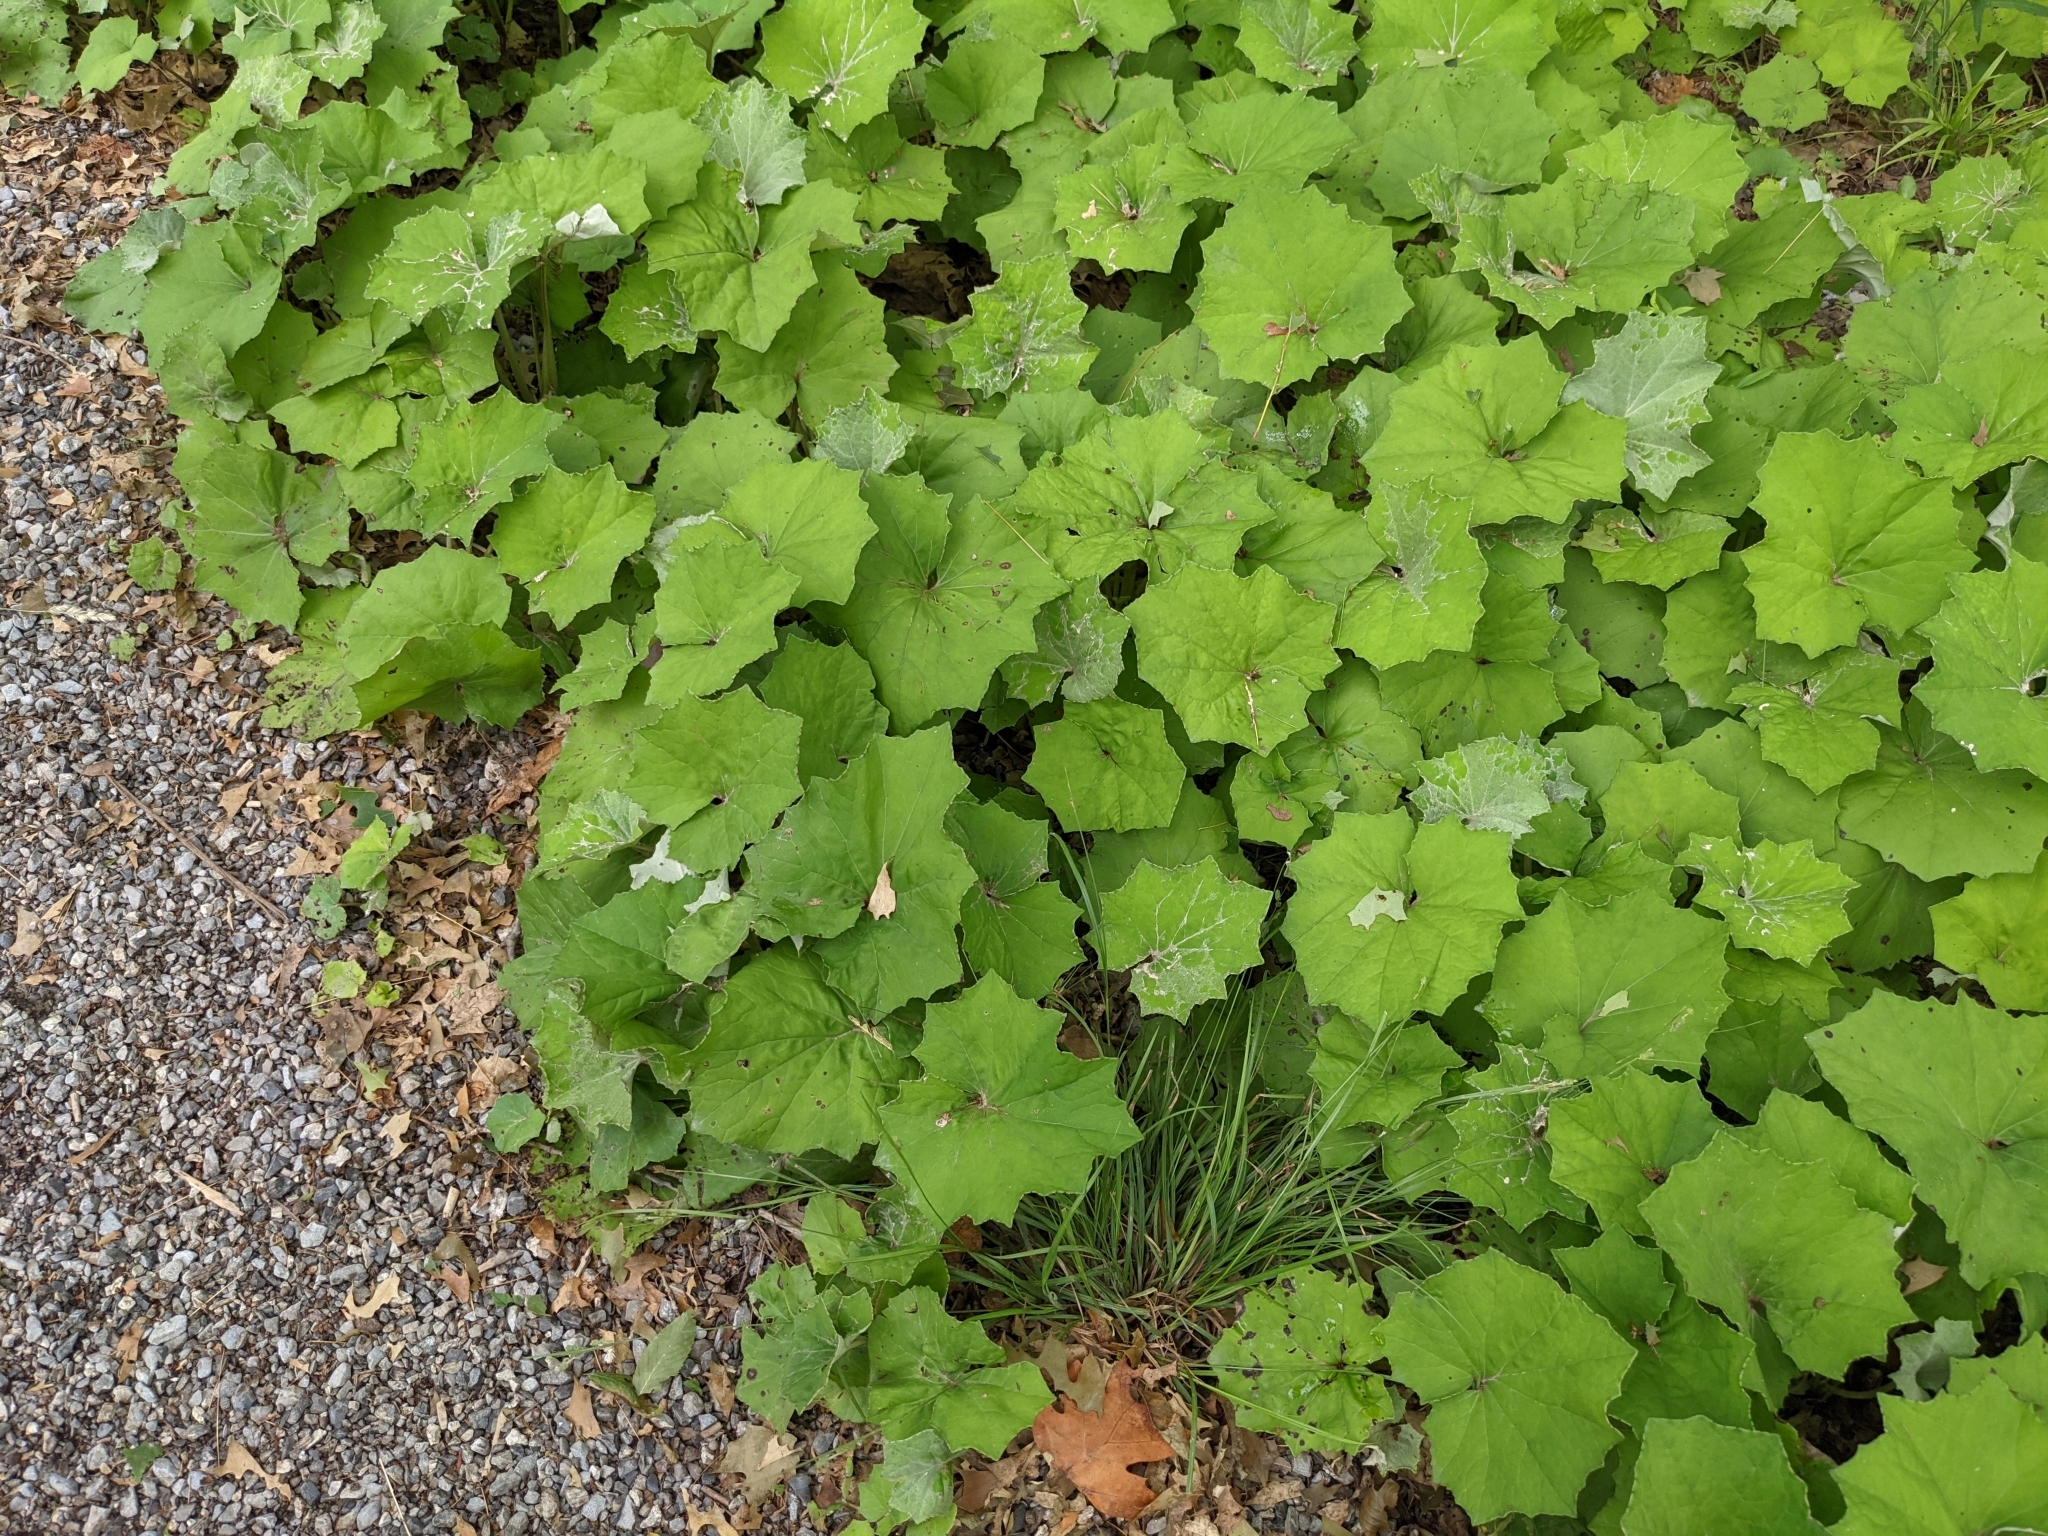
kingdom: Plantae
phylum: Tracheophyta
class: Magnoliopsida
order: Asterales
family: Asteraceae
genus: Tussilago
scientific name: Tussilago farfara
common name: Coltsfoot
